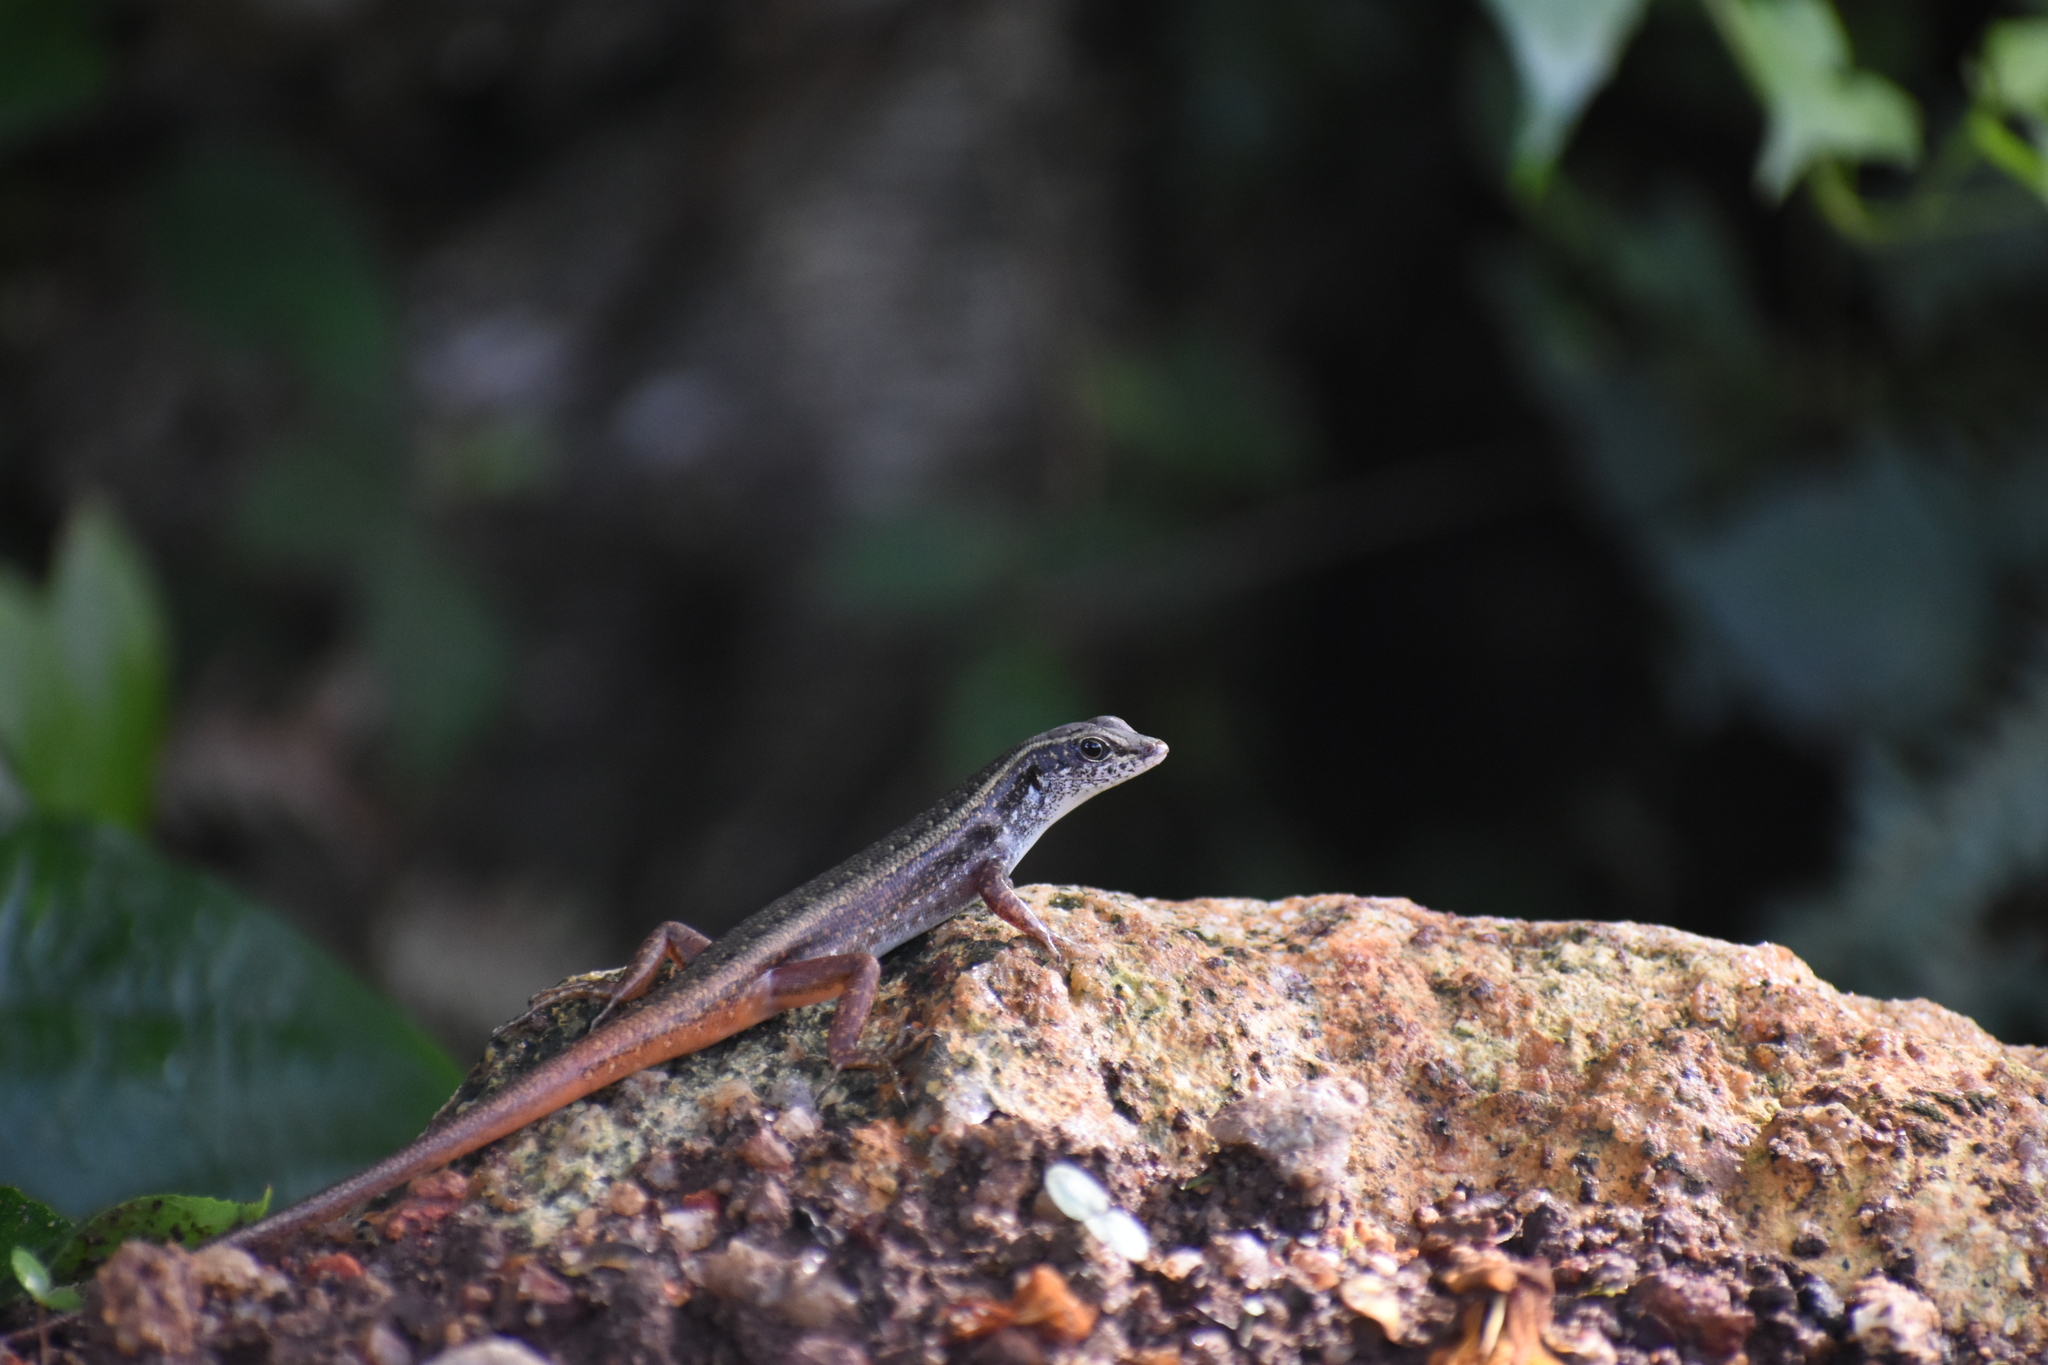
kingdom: Animalia
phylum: Chordata
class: Squamata
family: Scincidae
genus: Sphenomorphus
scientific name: Sphenomorphus dussumieri
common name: Dussumier's forest skink
